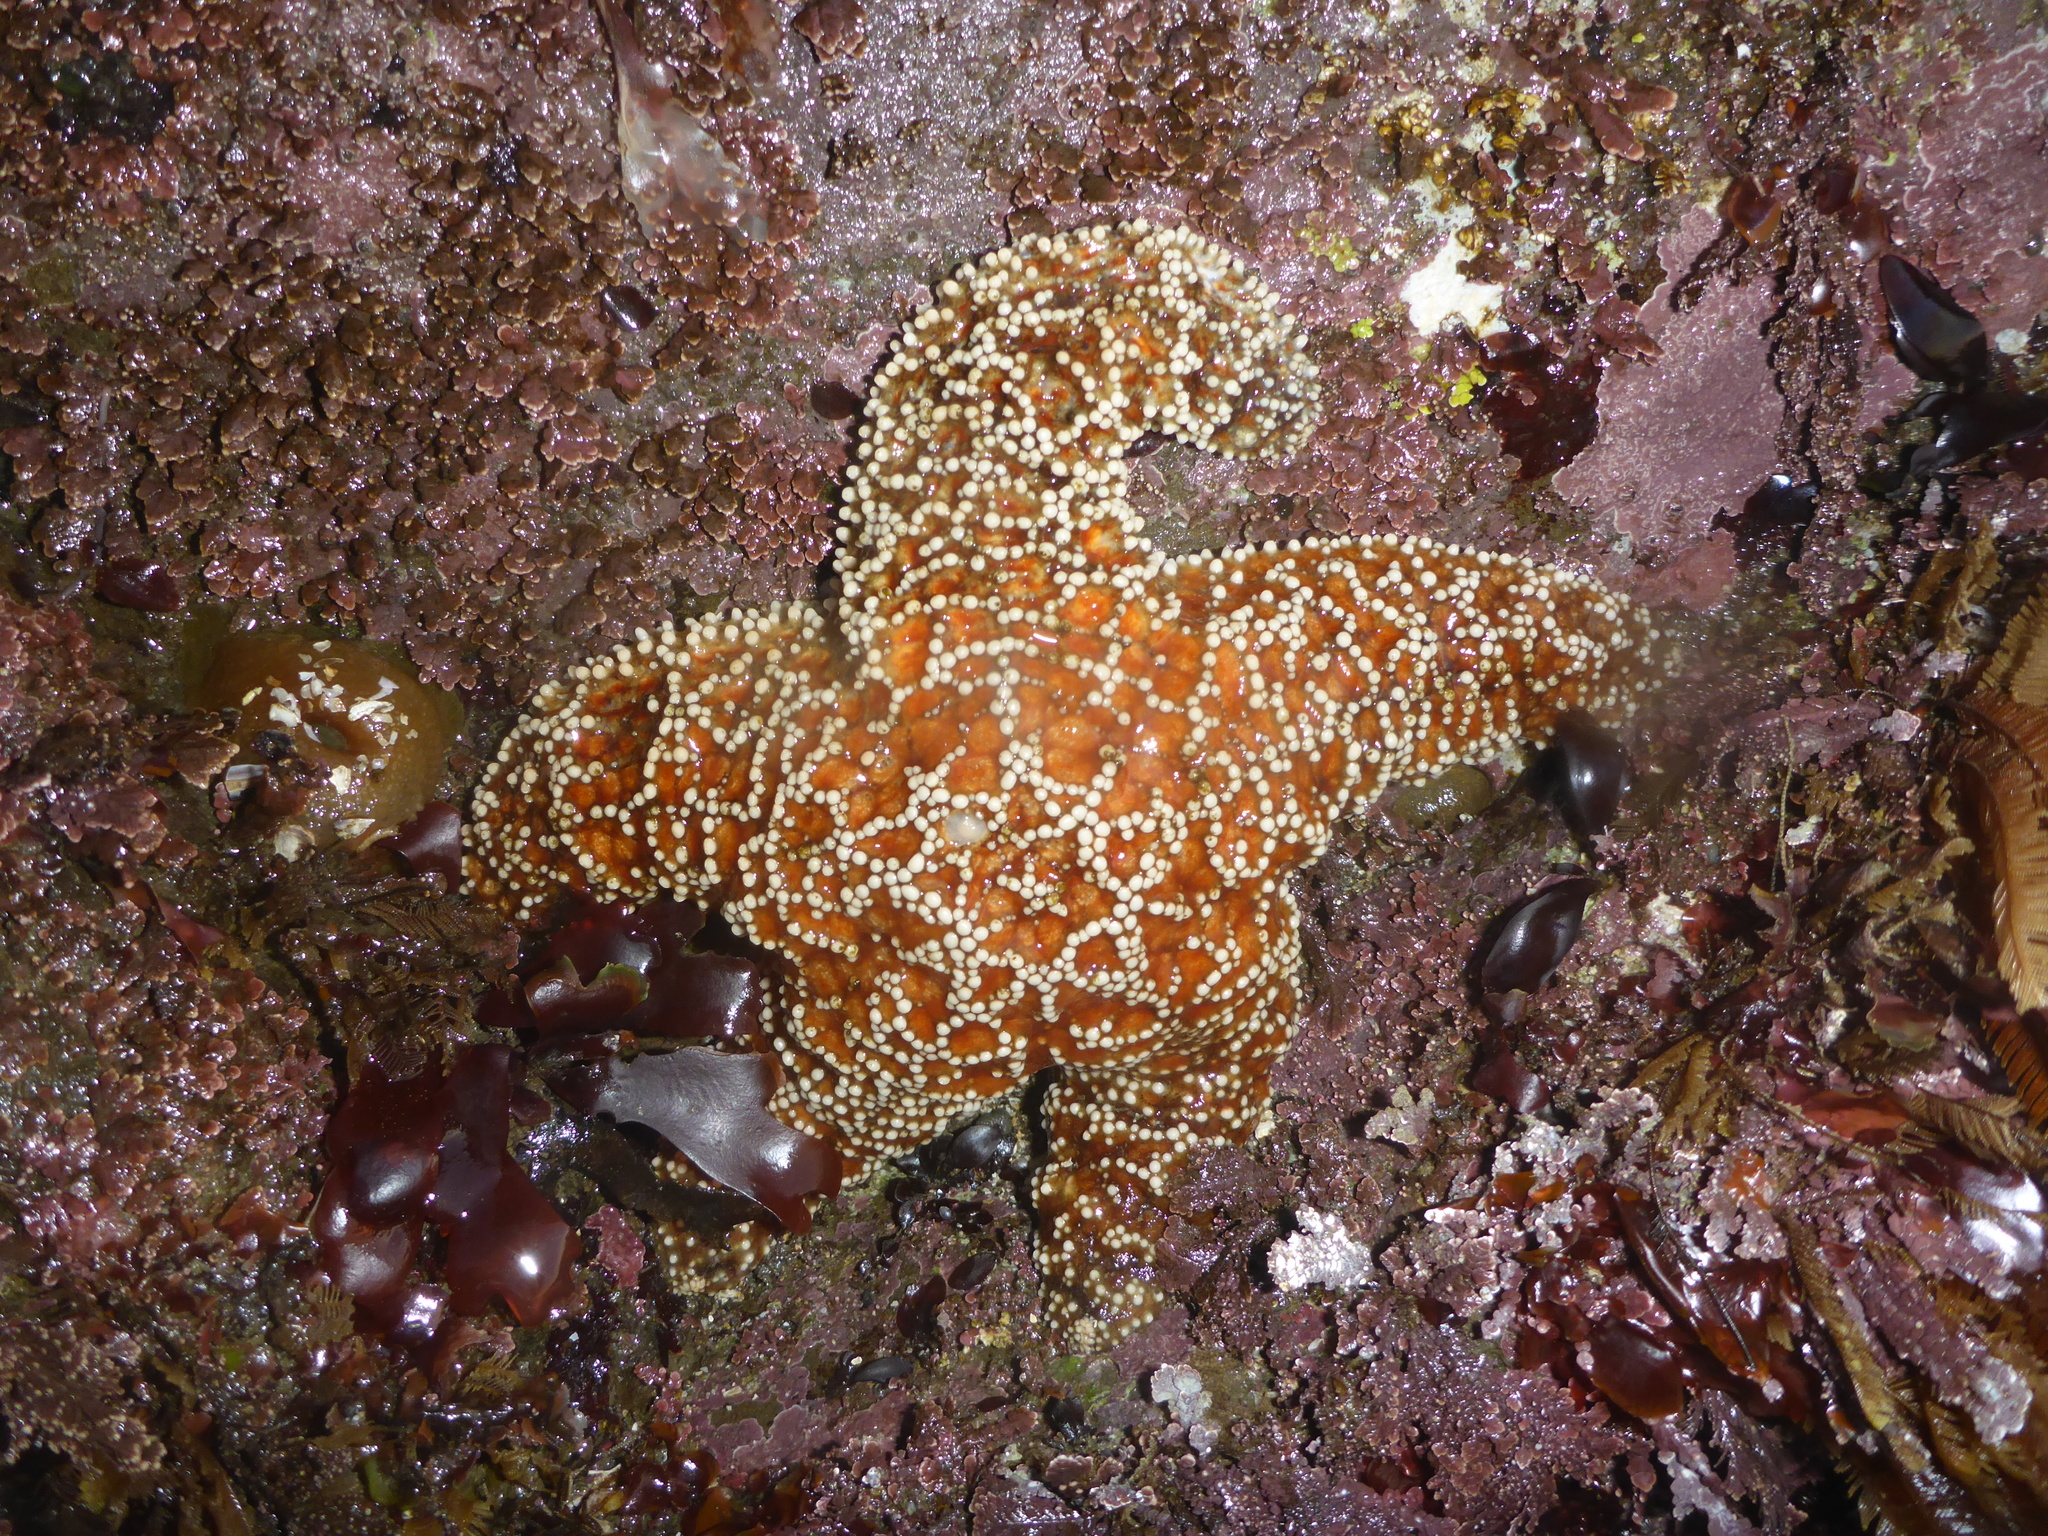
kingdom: Animalia
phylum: Echinodermata
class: Asteroidea
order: Forcipulatida
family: Asteriidae
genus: Pisaster
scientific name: Pisaster ochraceus
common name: Ochre stars
